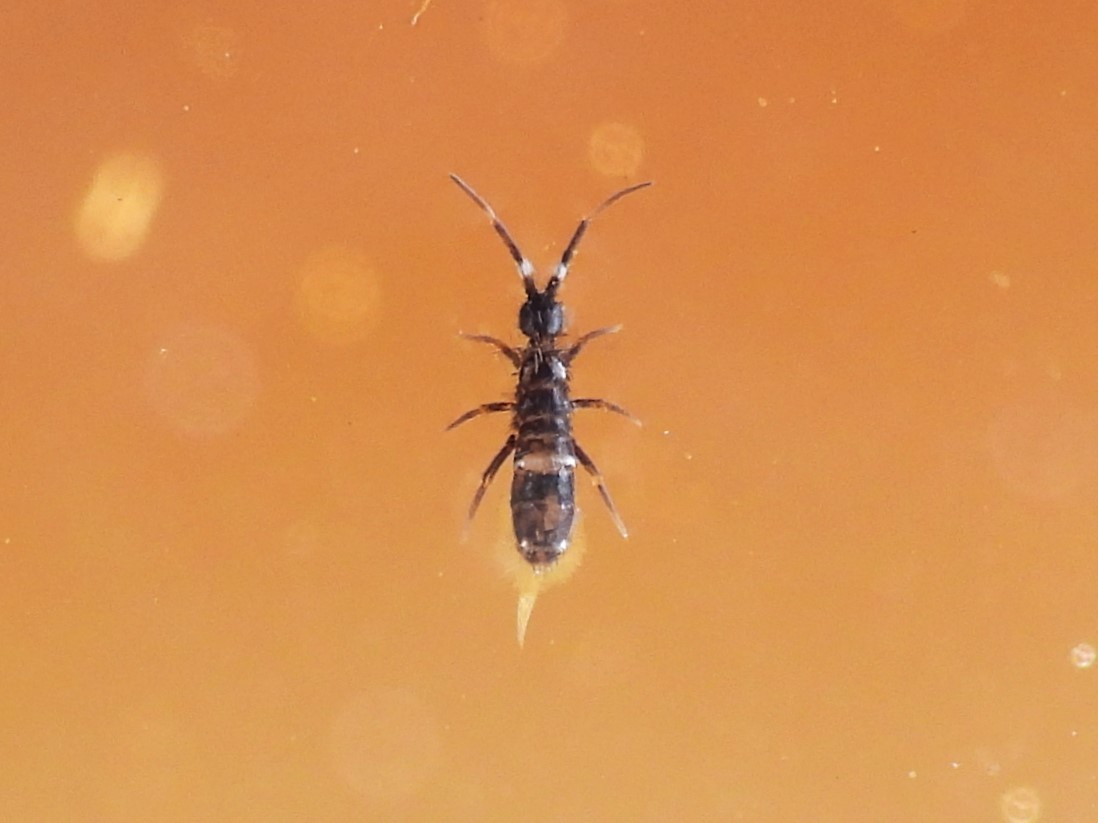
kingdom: Animalia
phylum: Arthropoda
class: Collembola
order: Entomobryomorpha
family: Orchesellidae
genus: Orchesella
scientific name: Orchesella cincta
